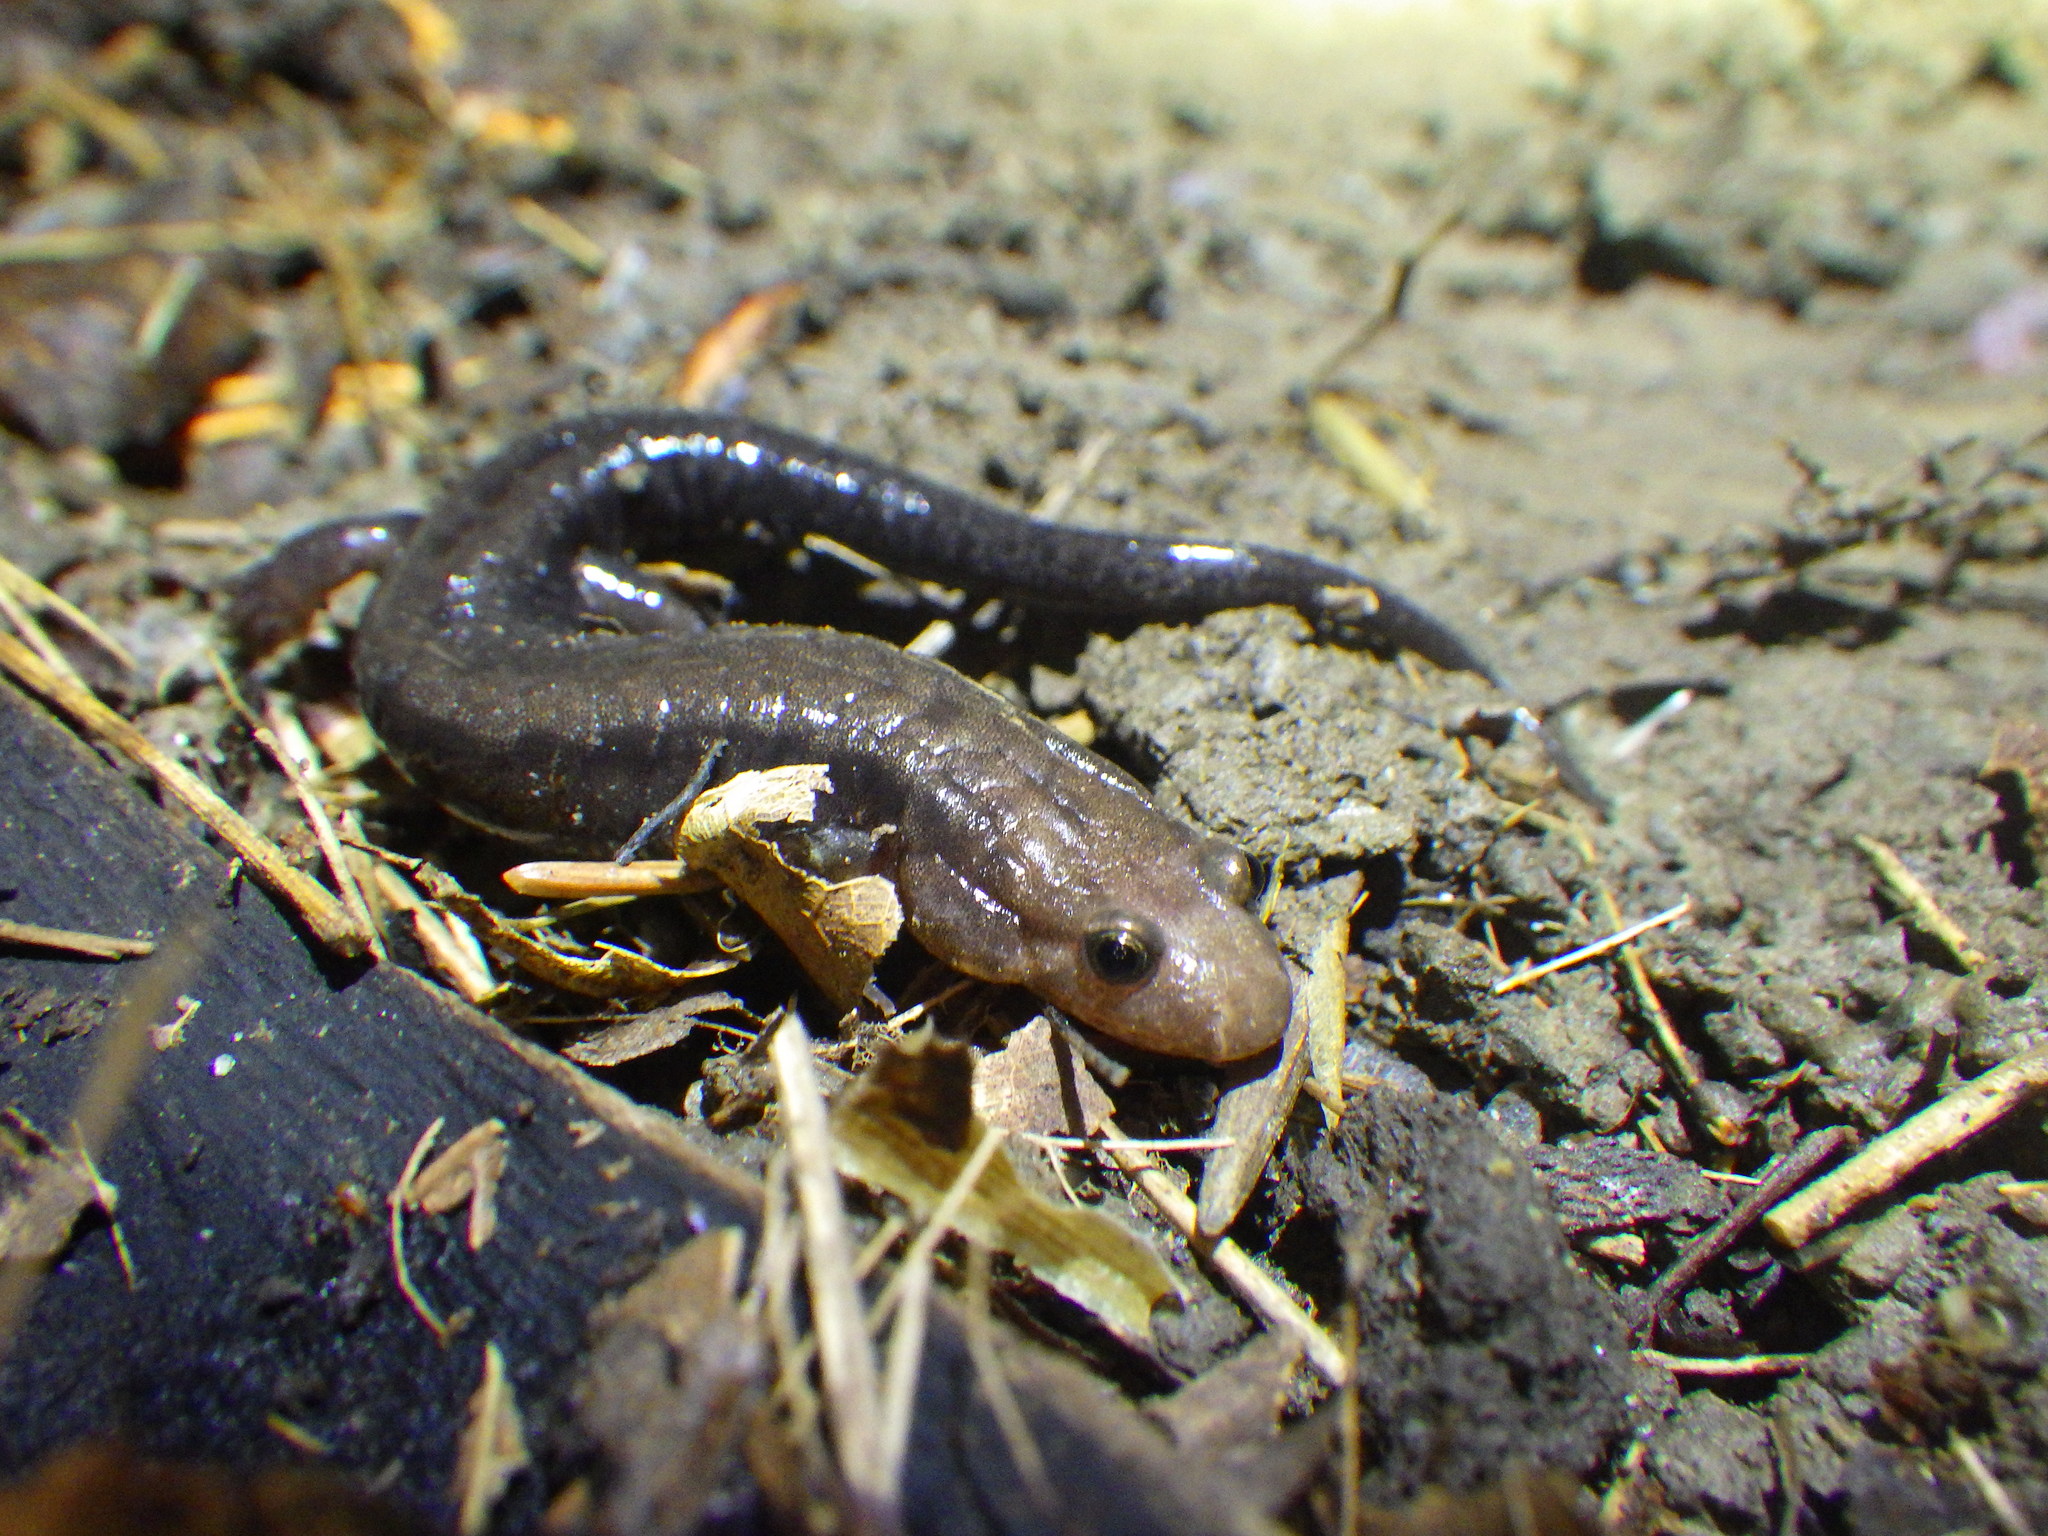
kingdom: Animalia
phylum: Chordata
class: Amphibia
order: Caudata
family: Plethodontidae
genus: Desmognathus
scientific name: Desmognathus ochrophaeus
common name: Allegheny mountain dusky salamander
